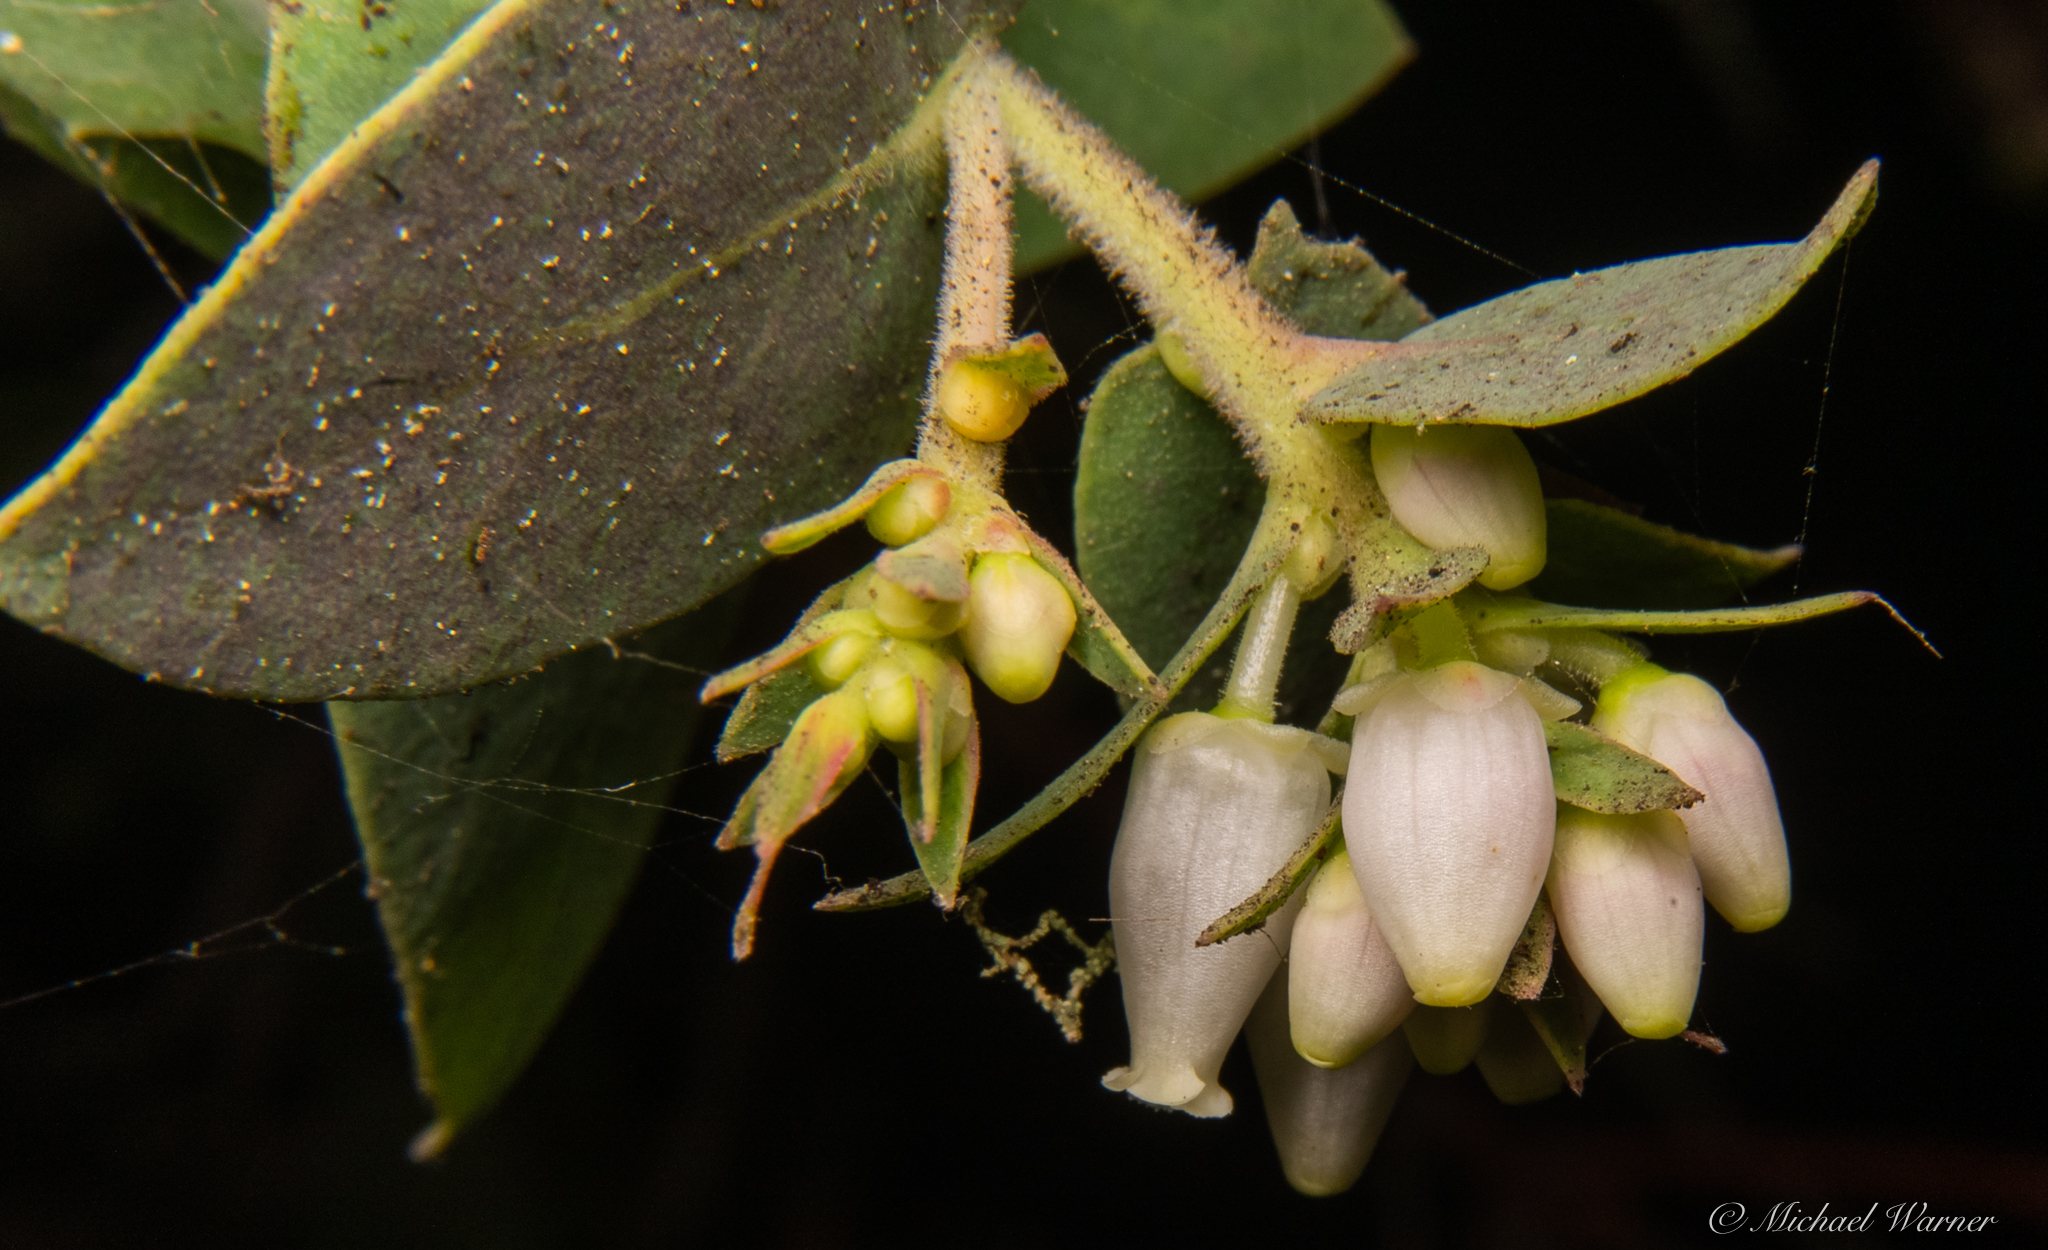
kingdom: Plantae
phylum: Tracheophyta
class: Magnoliopsida
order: Ericales
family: Ericaceae
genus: Arctostaphylos
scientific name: Arctostaphylos pallida
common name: Pallid manzanita
